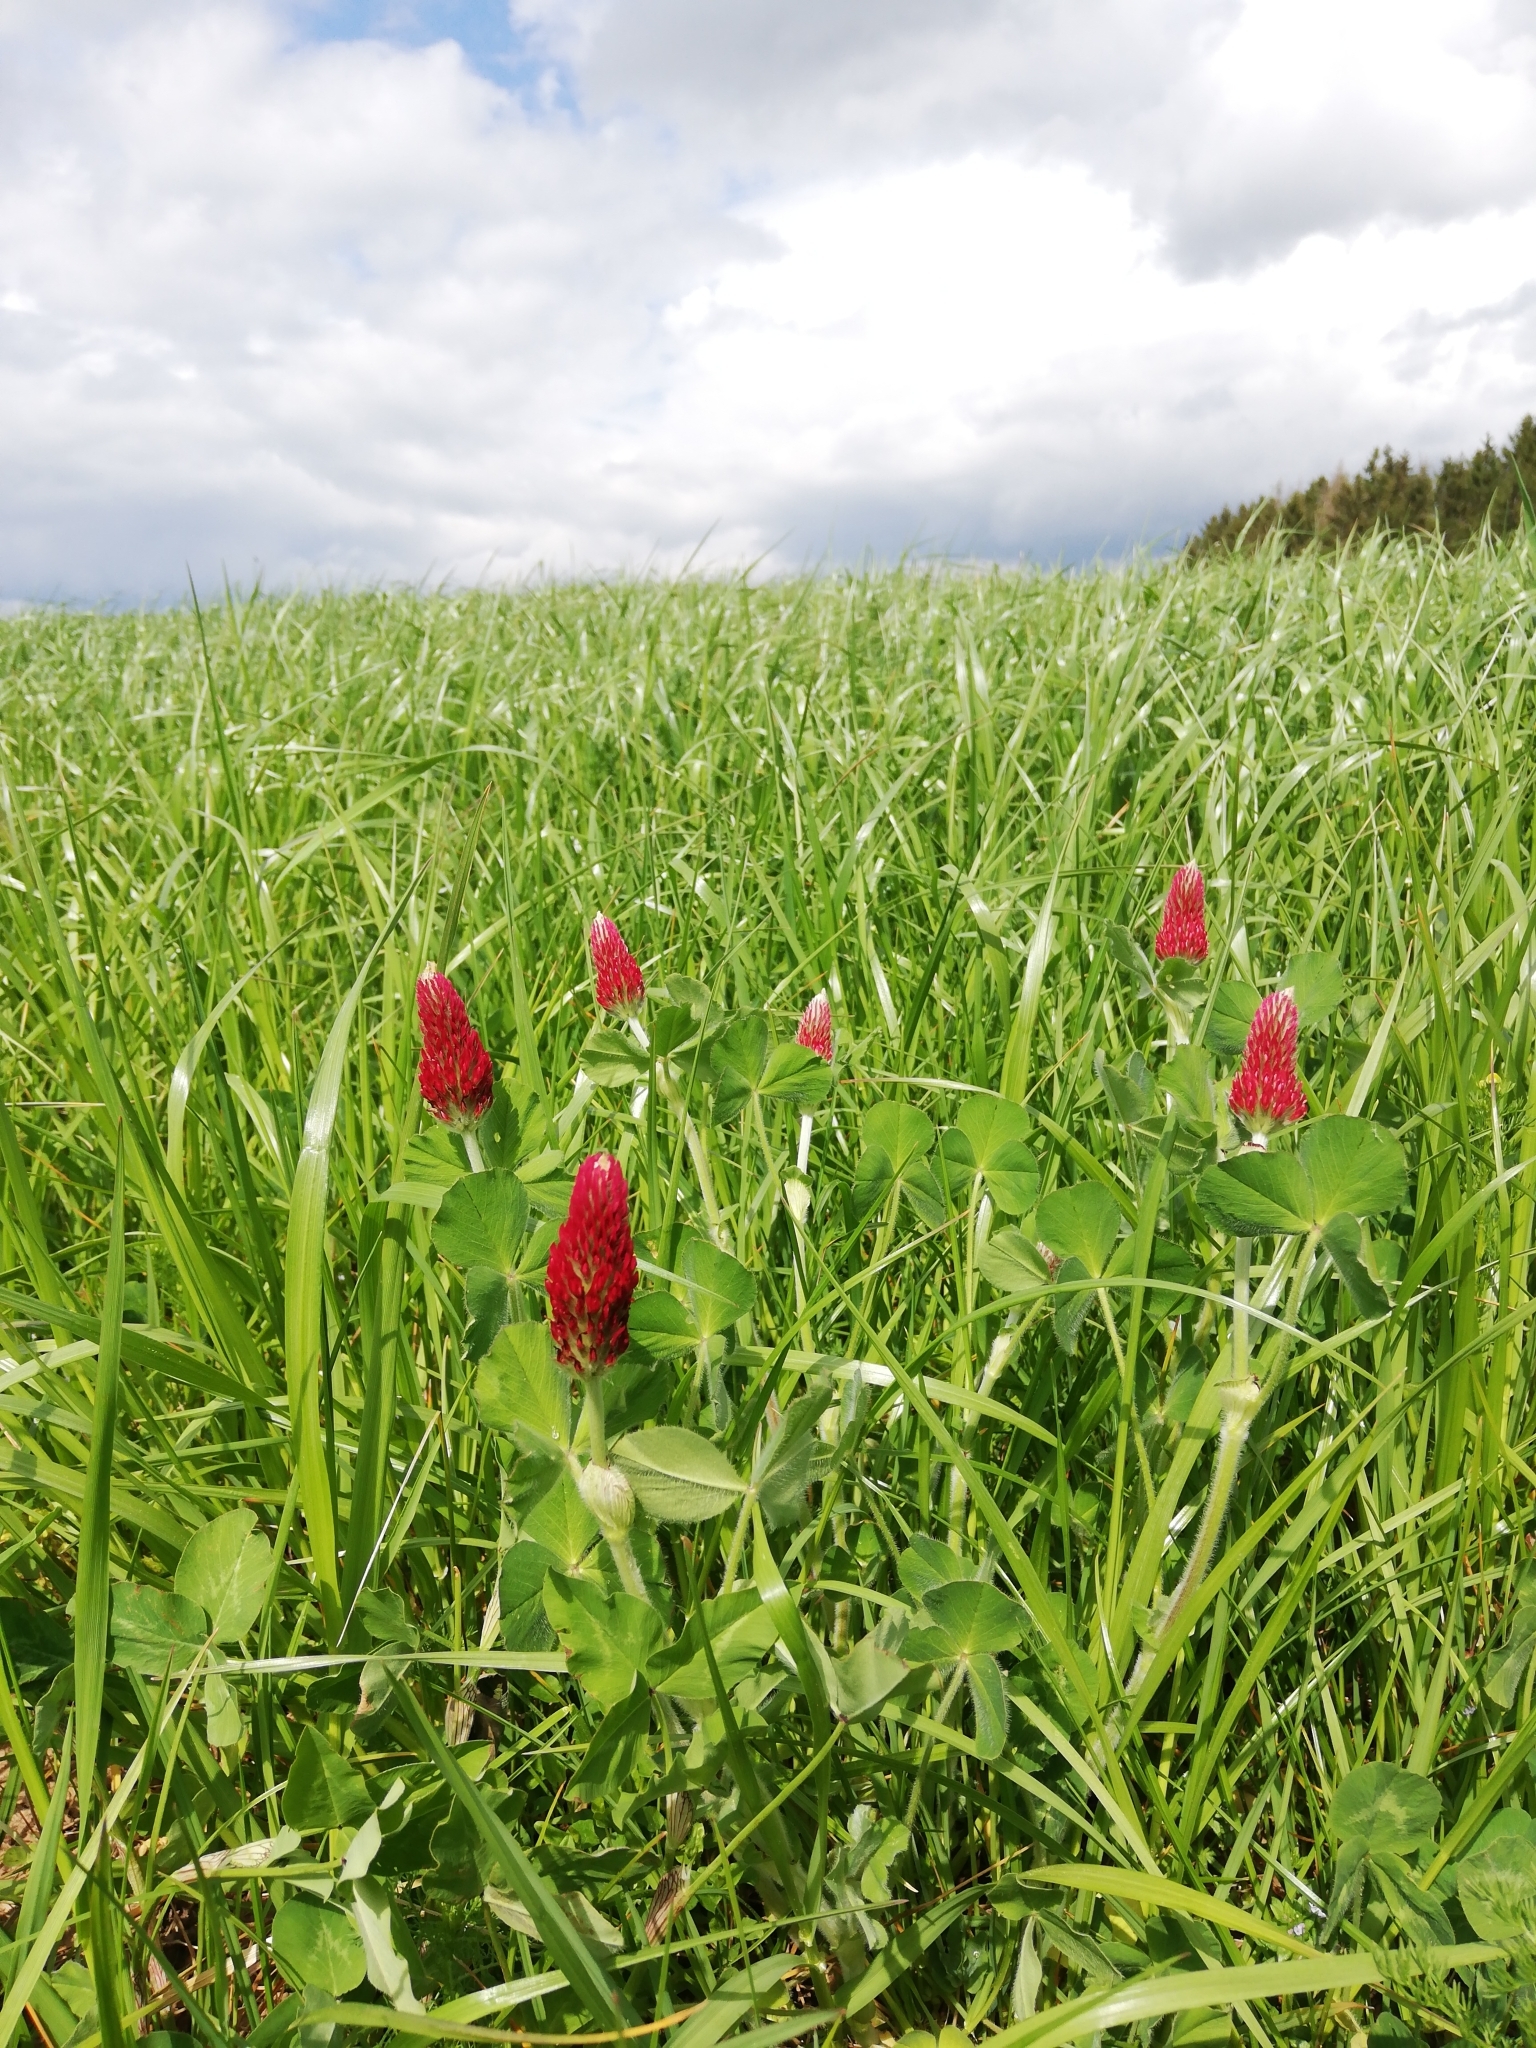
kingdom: Plantae
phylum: Tracheophyta
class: Magnoliopsida
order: Fabales
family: Fabaceae
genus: Trifolium
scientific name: Trifolium incarnatum
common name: Crimson clover
